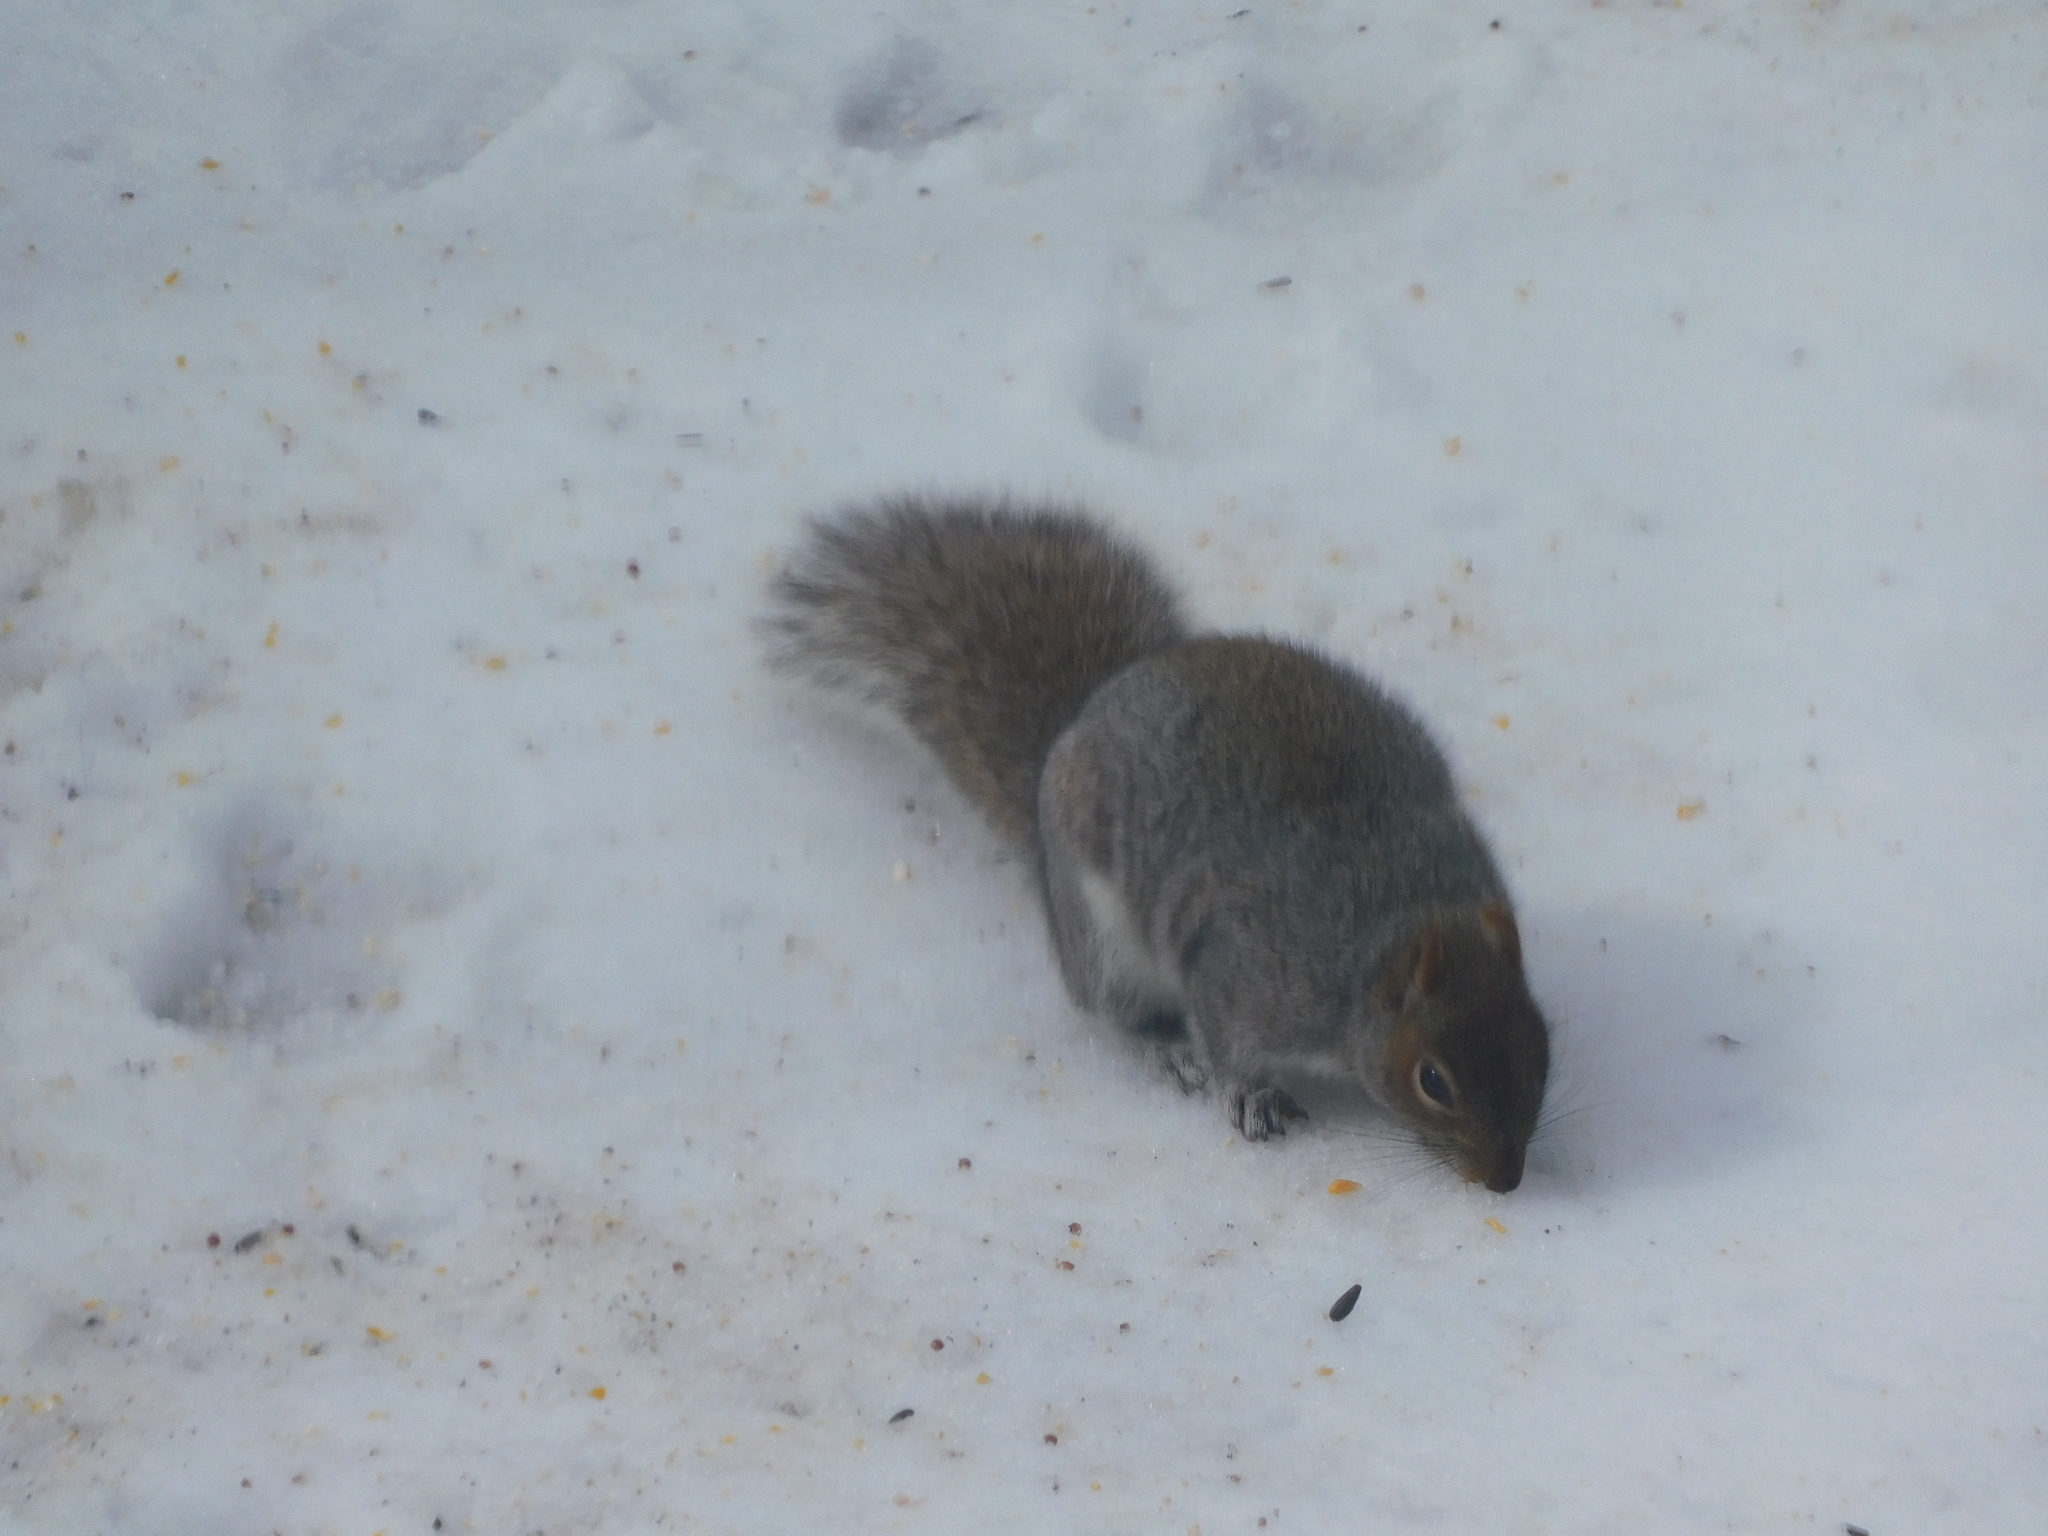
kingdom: Animalia
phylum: Chordata
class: Mammalia
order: Rodentia
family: Sciuridae
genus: Sciurus
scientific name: Sciurus carolinensis
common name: Eastern gray squirrel
